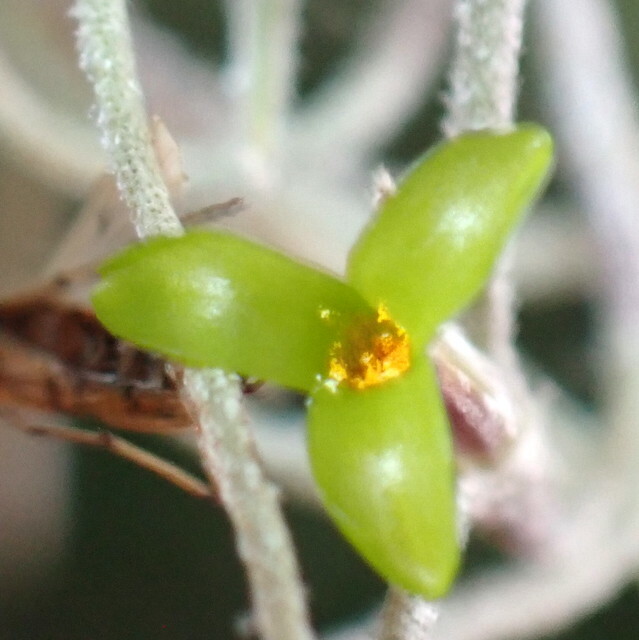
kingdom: Plantae
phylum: Tracheophyta
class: Liliopsida
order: Poales
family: Bromeliaceae
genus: Tillandsia
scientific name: Tillandsia usneoides
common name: Spanish moss
